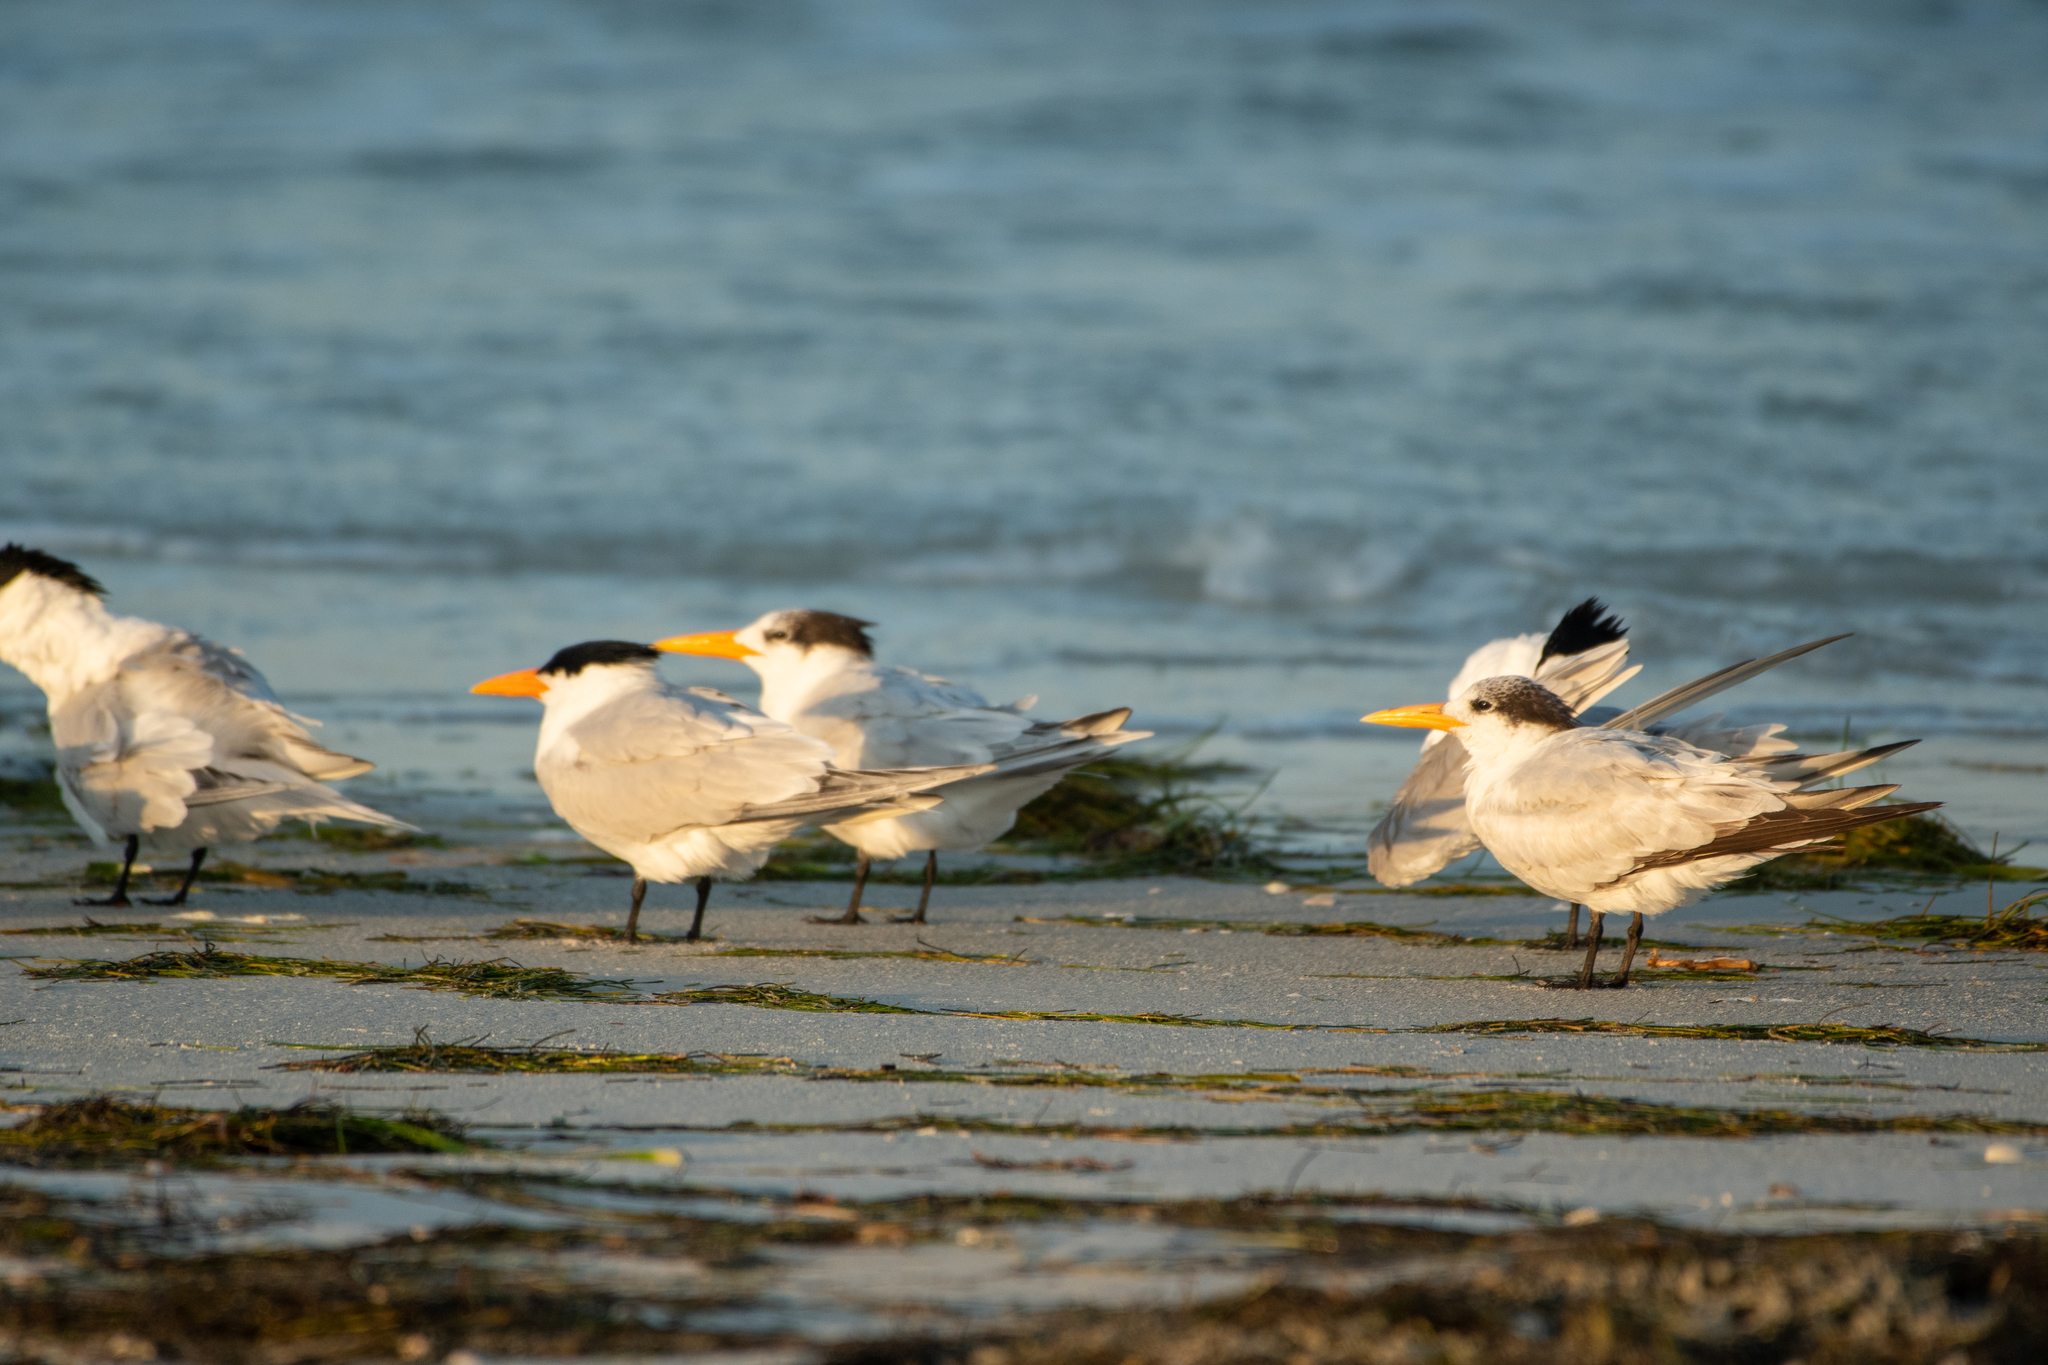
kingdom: Animalia
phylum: Chordata
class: Aves
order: Charadriiformes
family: Laridae
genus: Thalasseus
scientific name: Thalasseus maximus
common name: Royal tern
